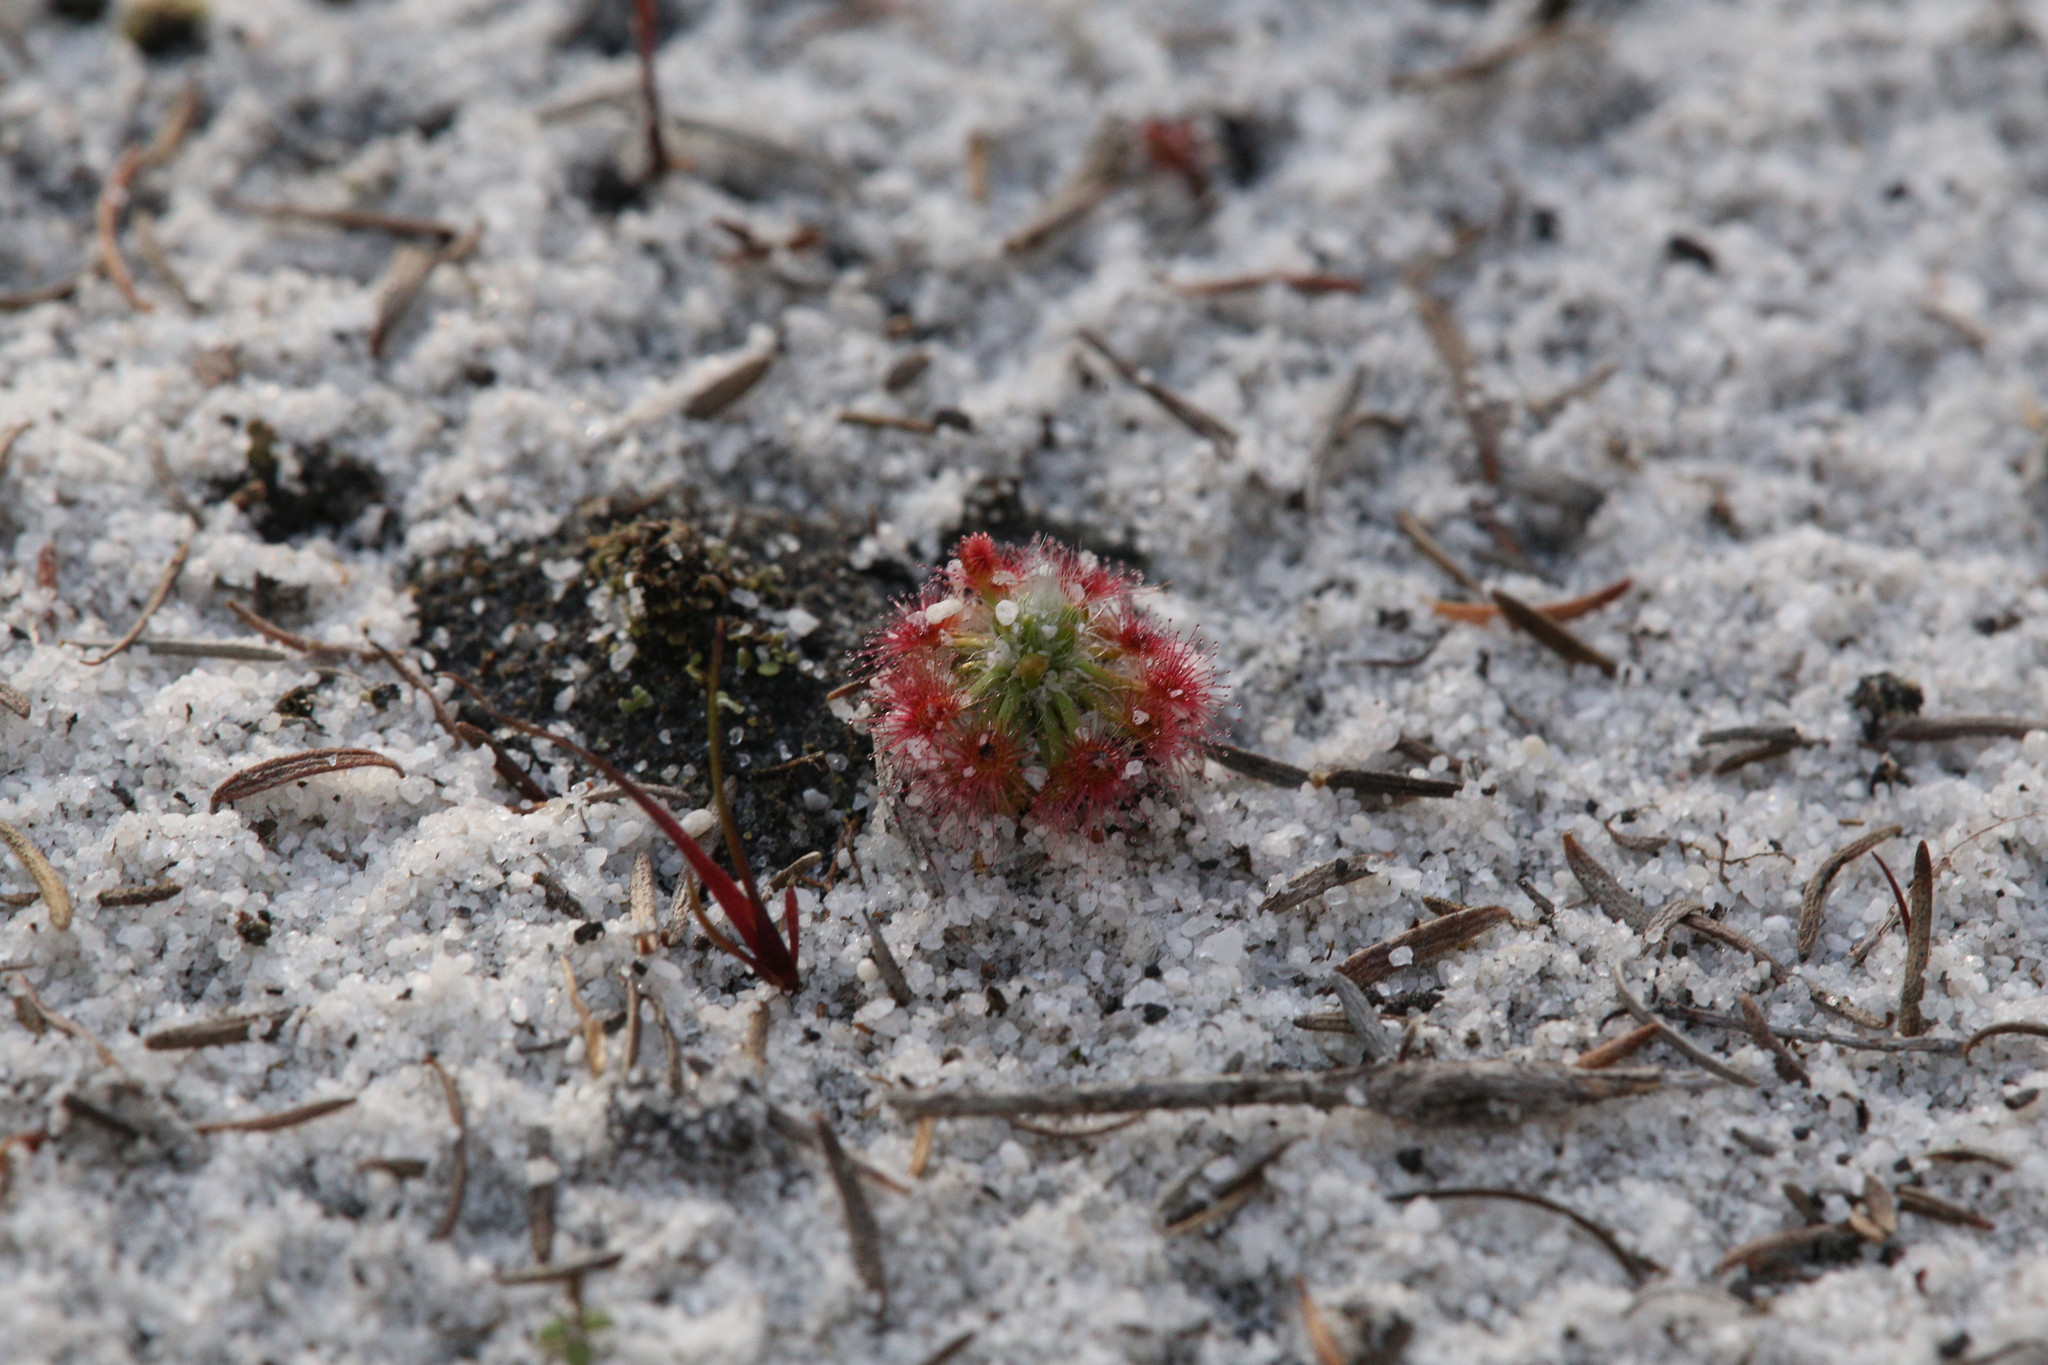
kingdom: Plantae
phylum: Tracheophyta
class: Magnoliopsida
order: Caryophyllales
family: Droseraceae
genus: Drosera
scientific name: Drosera paleacea
